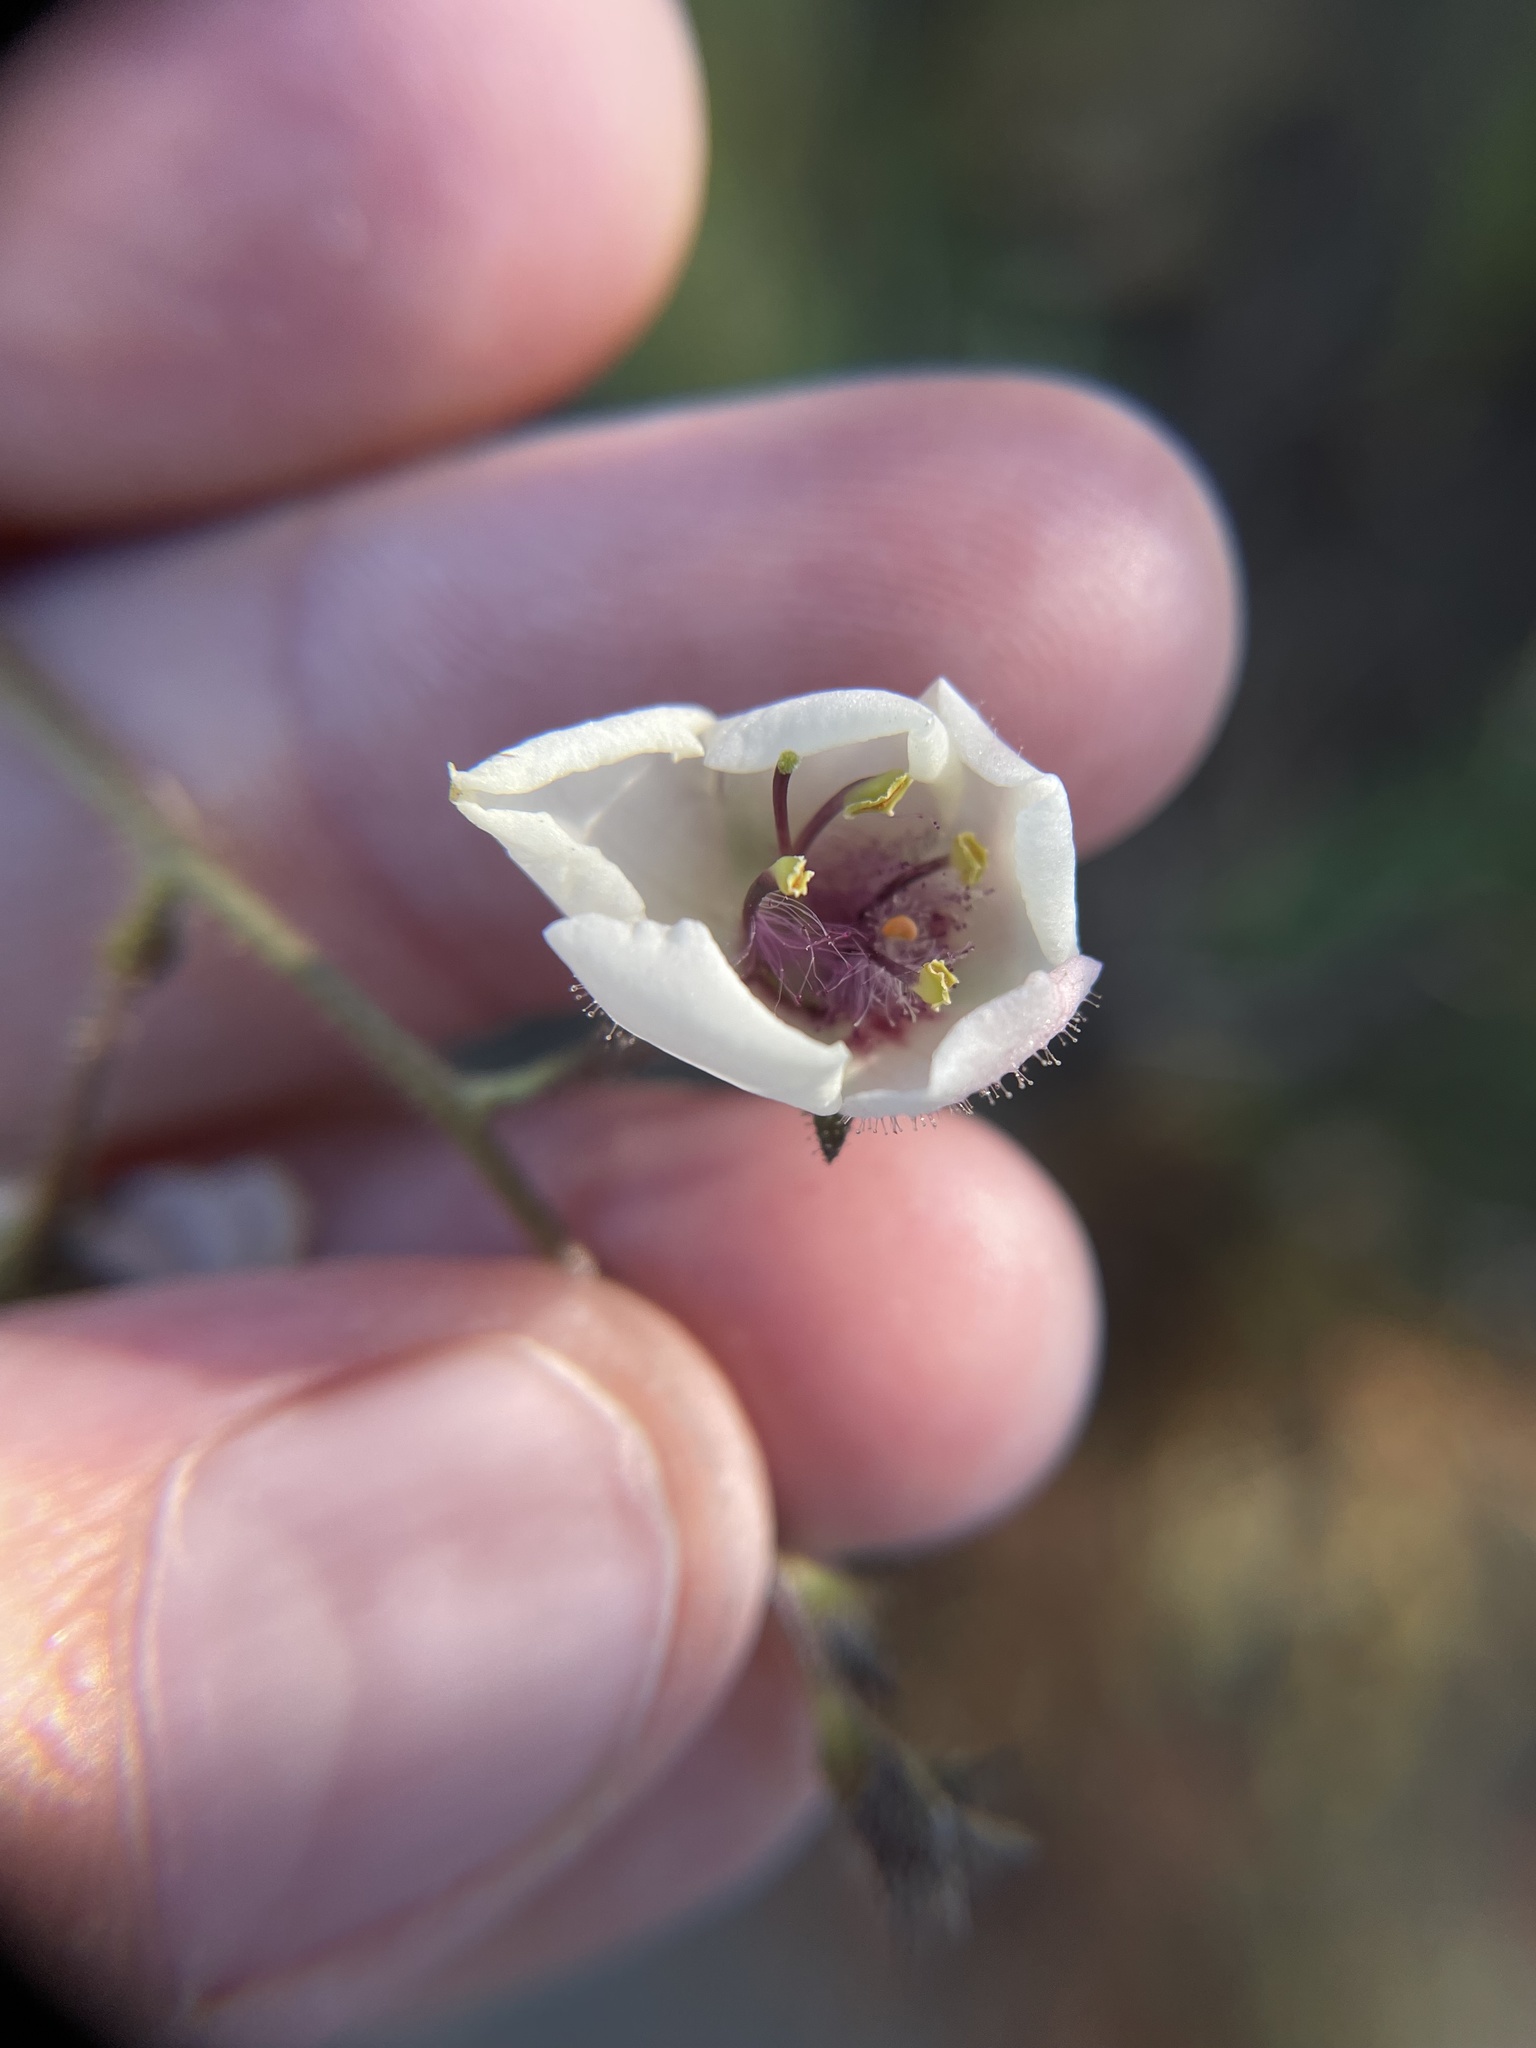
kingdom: Plantae
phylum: Tracheophyta
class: Magnoliopsida
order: Lamiales
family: Scrophulariaceae
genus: Verbascum
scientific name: Verbascum blattaria
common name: Moth mullein
